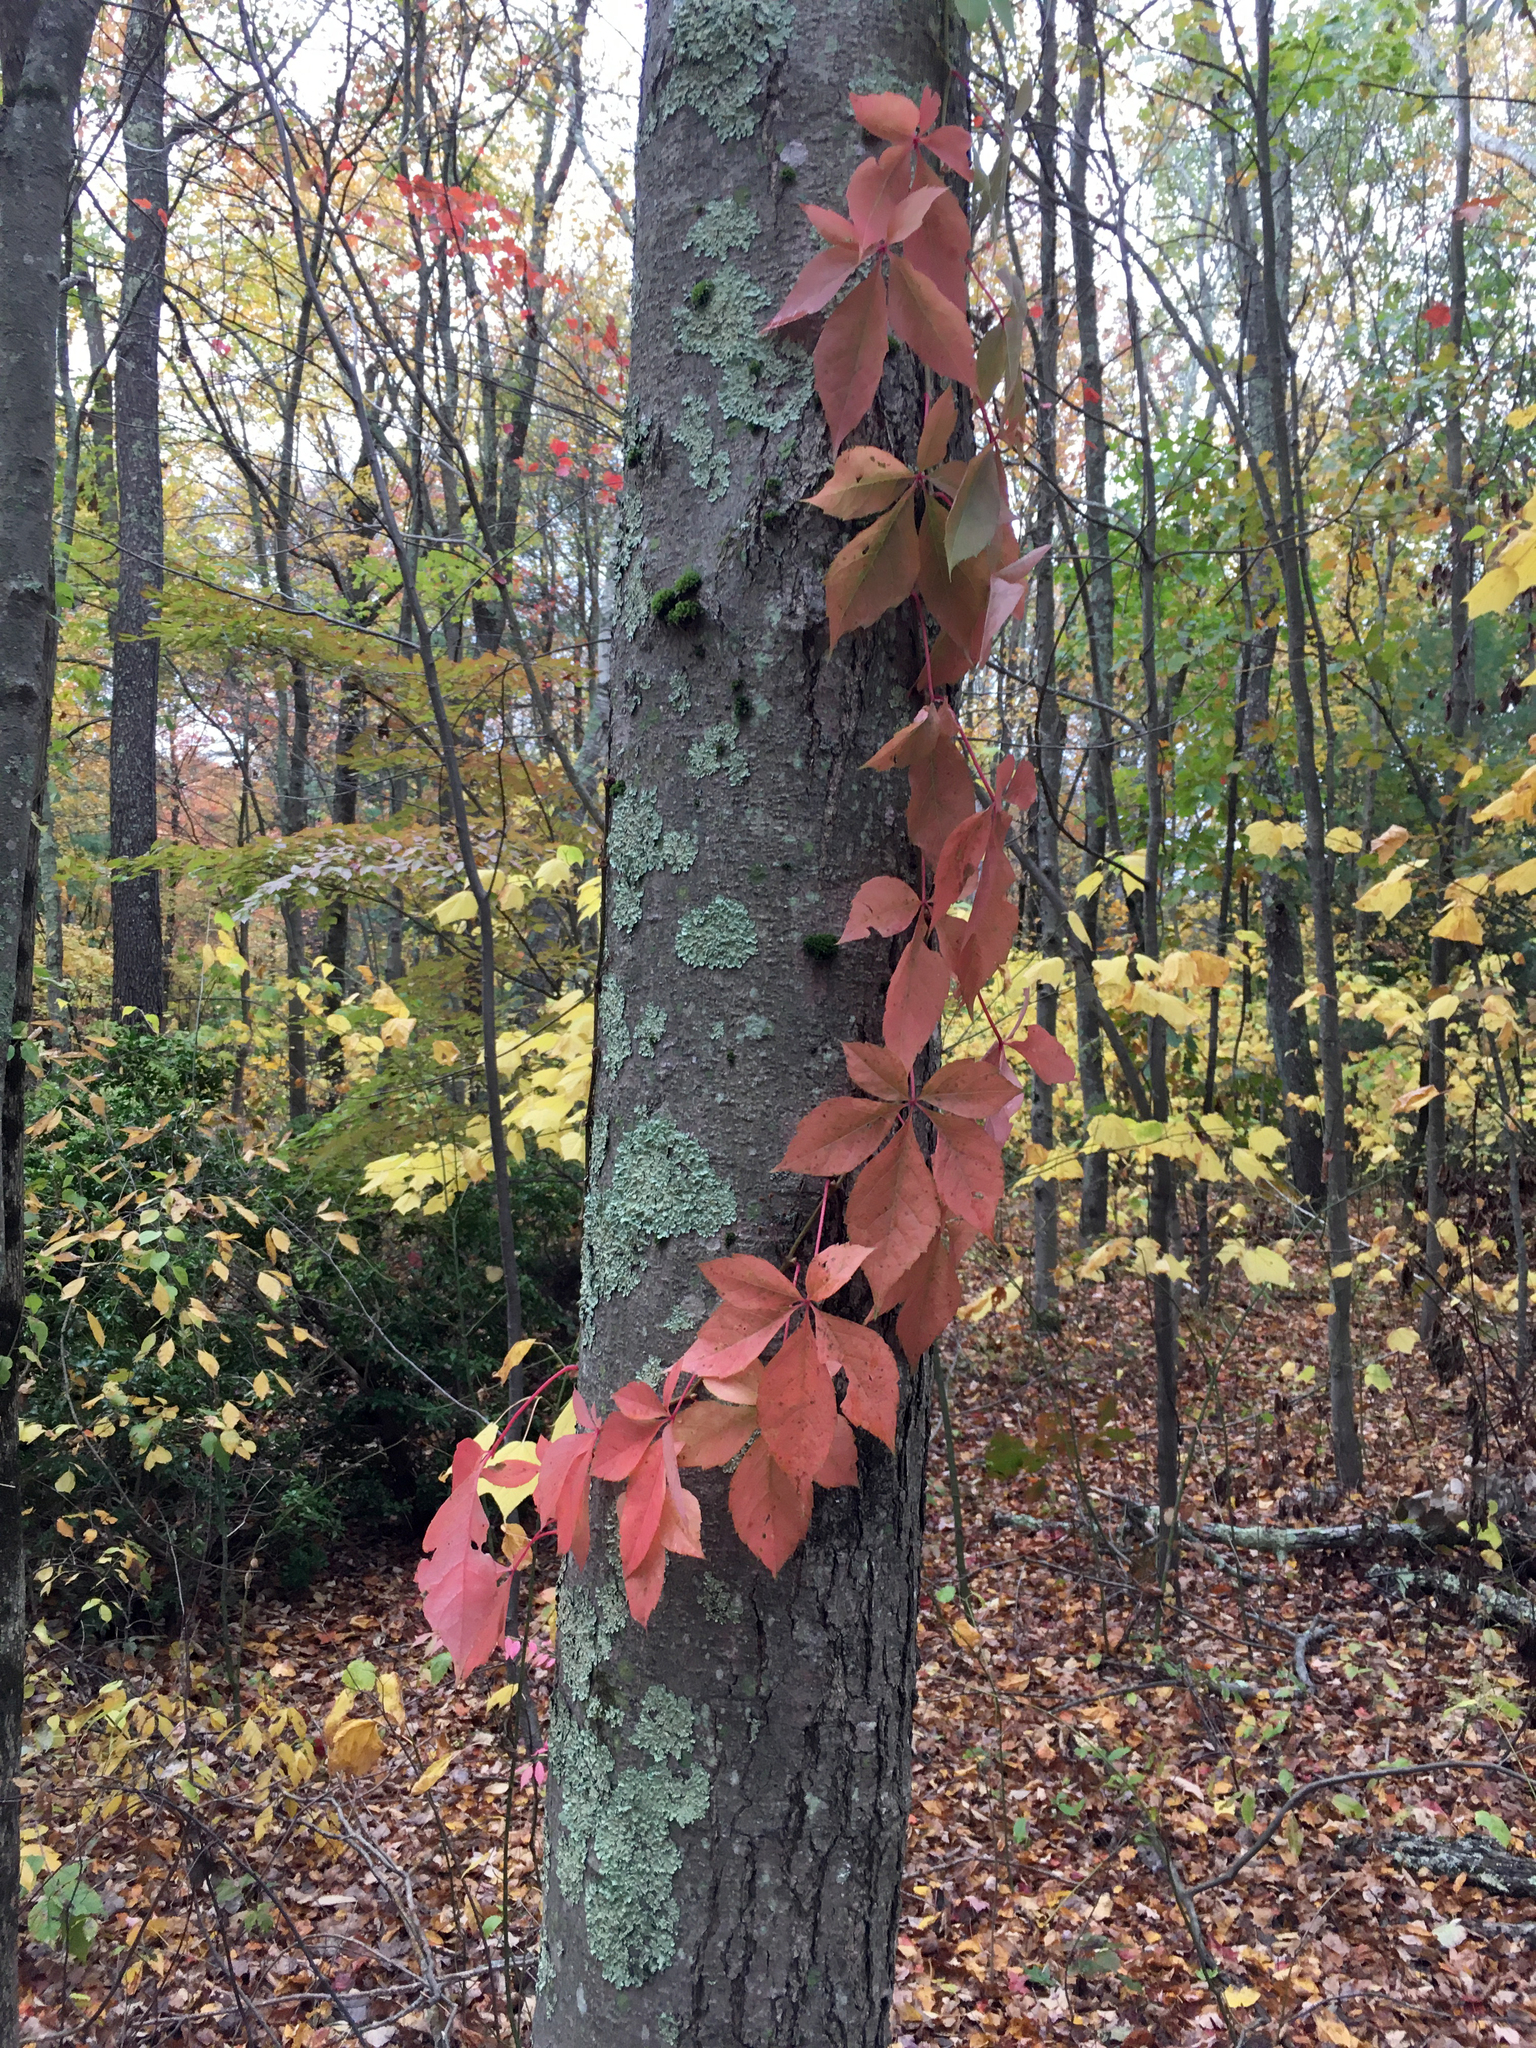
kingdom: Plantae
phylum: Tracheophyta
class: Magnoliopsida
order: Vitales
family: Vitaceae
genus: Parthenocissus
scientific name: Parthenocissus quinquefolia
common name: Virginia-creeper
